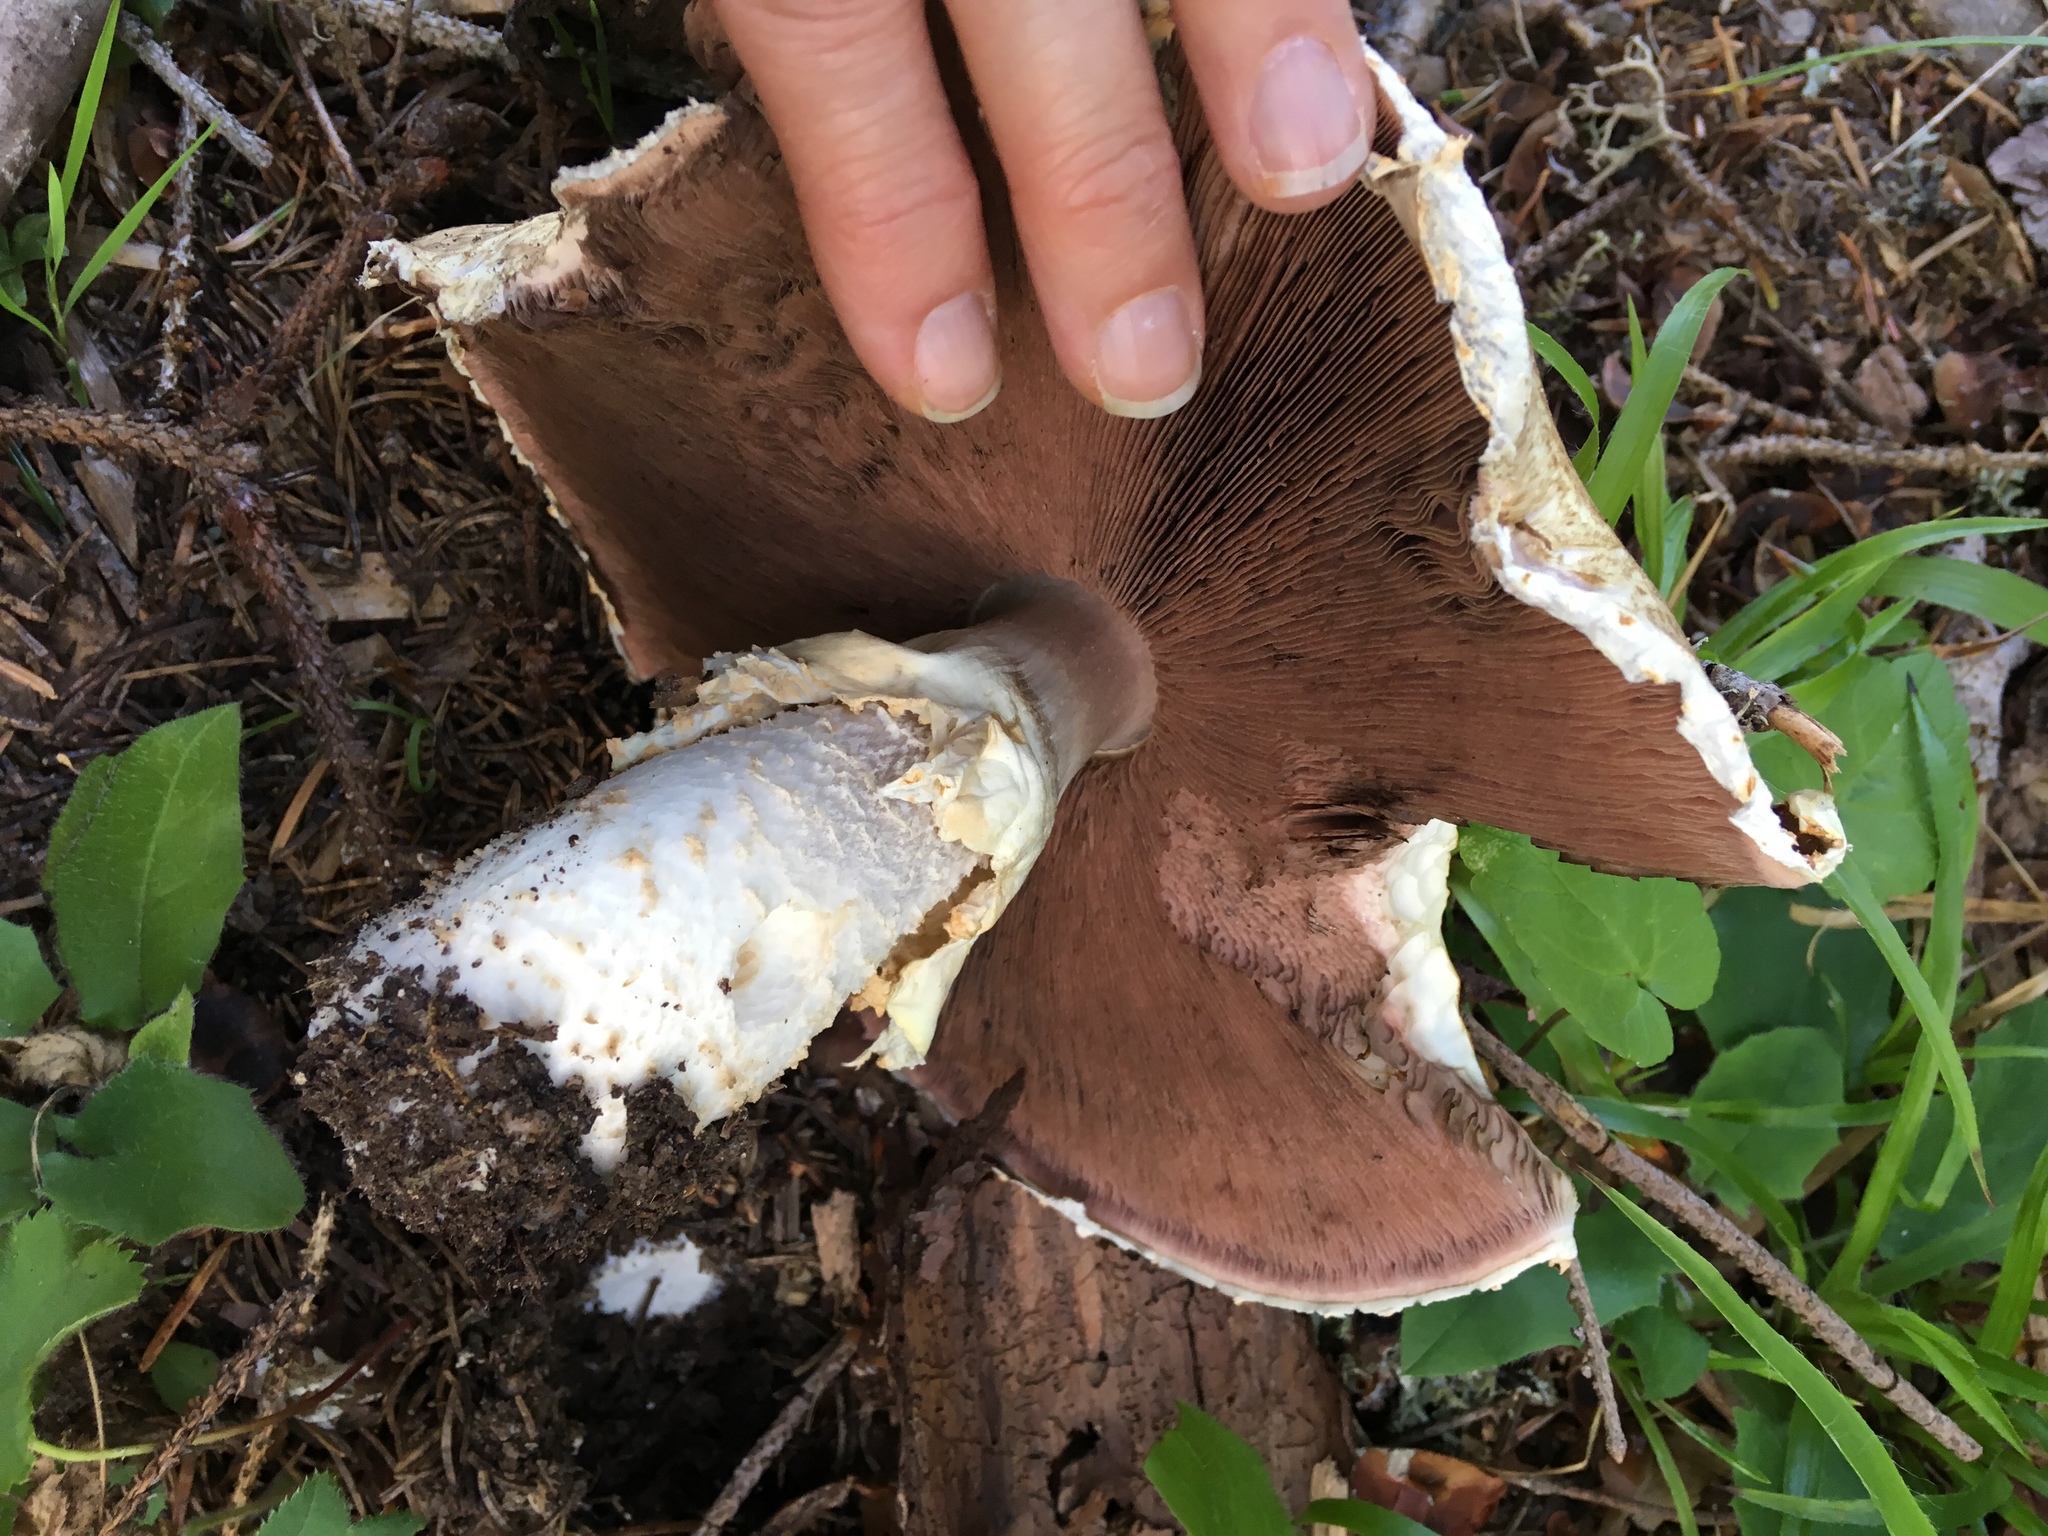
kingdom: Fungi
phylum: Basidiomycota
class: Agaricomycetes
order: Agaricales
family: Agaricaceae
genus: Agaricus
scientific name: Agaricus augustus
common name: Prince
